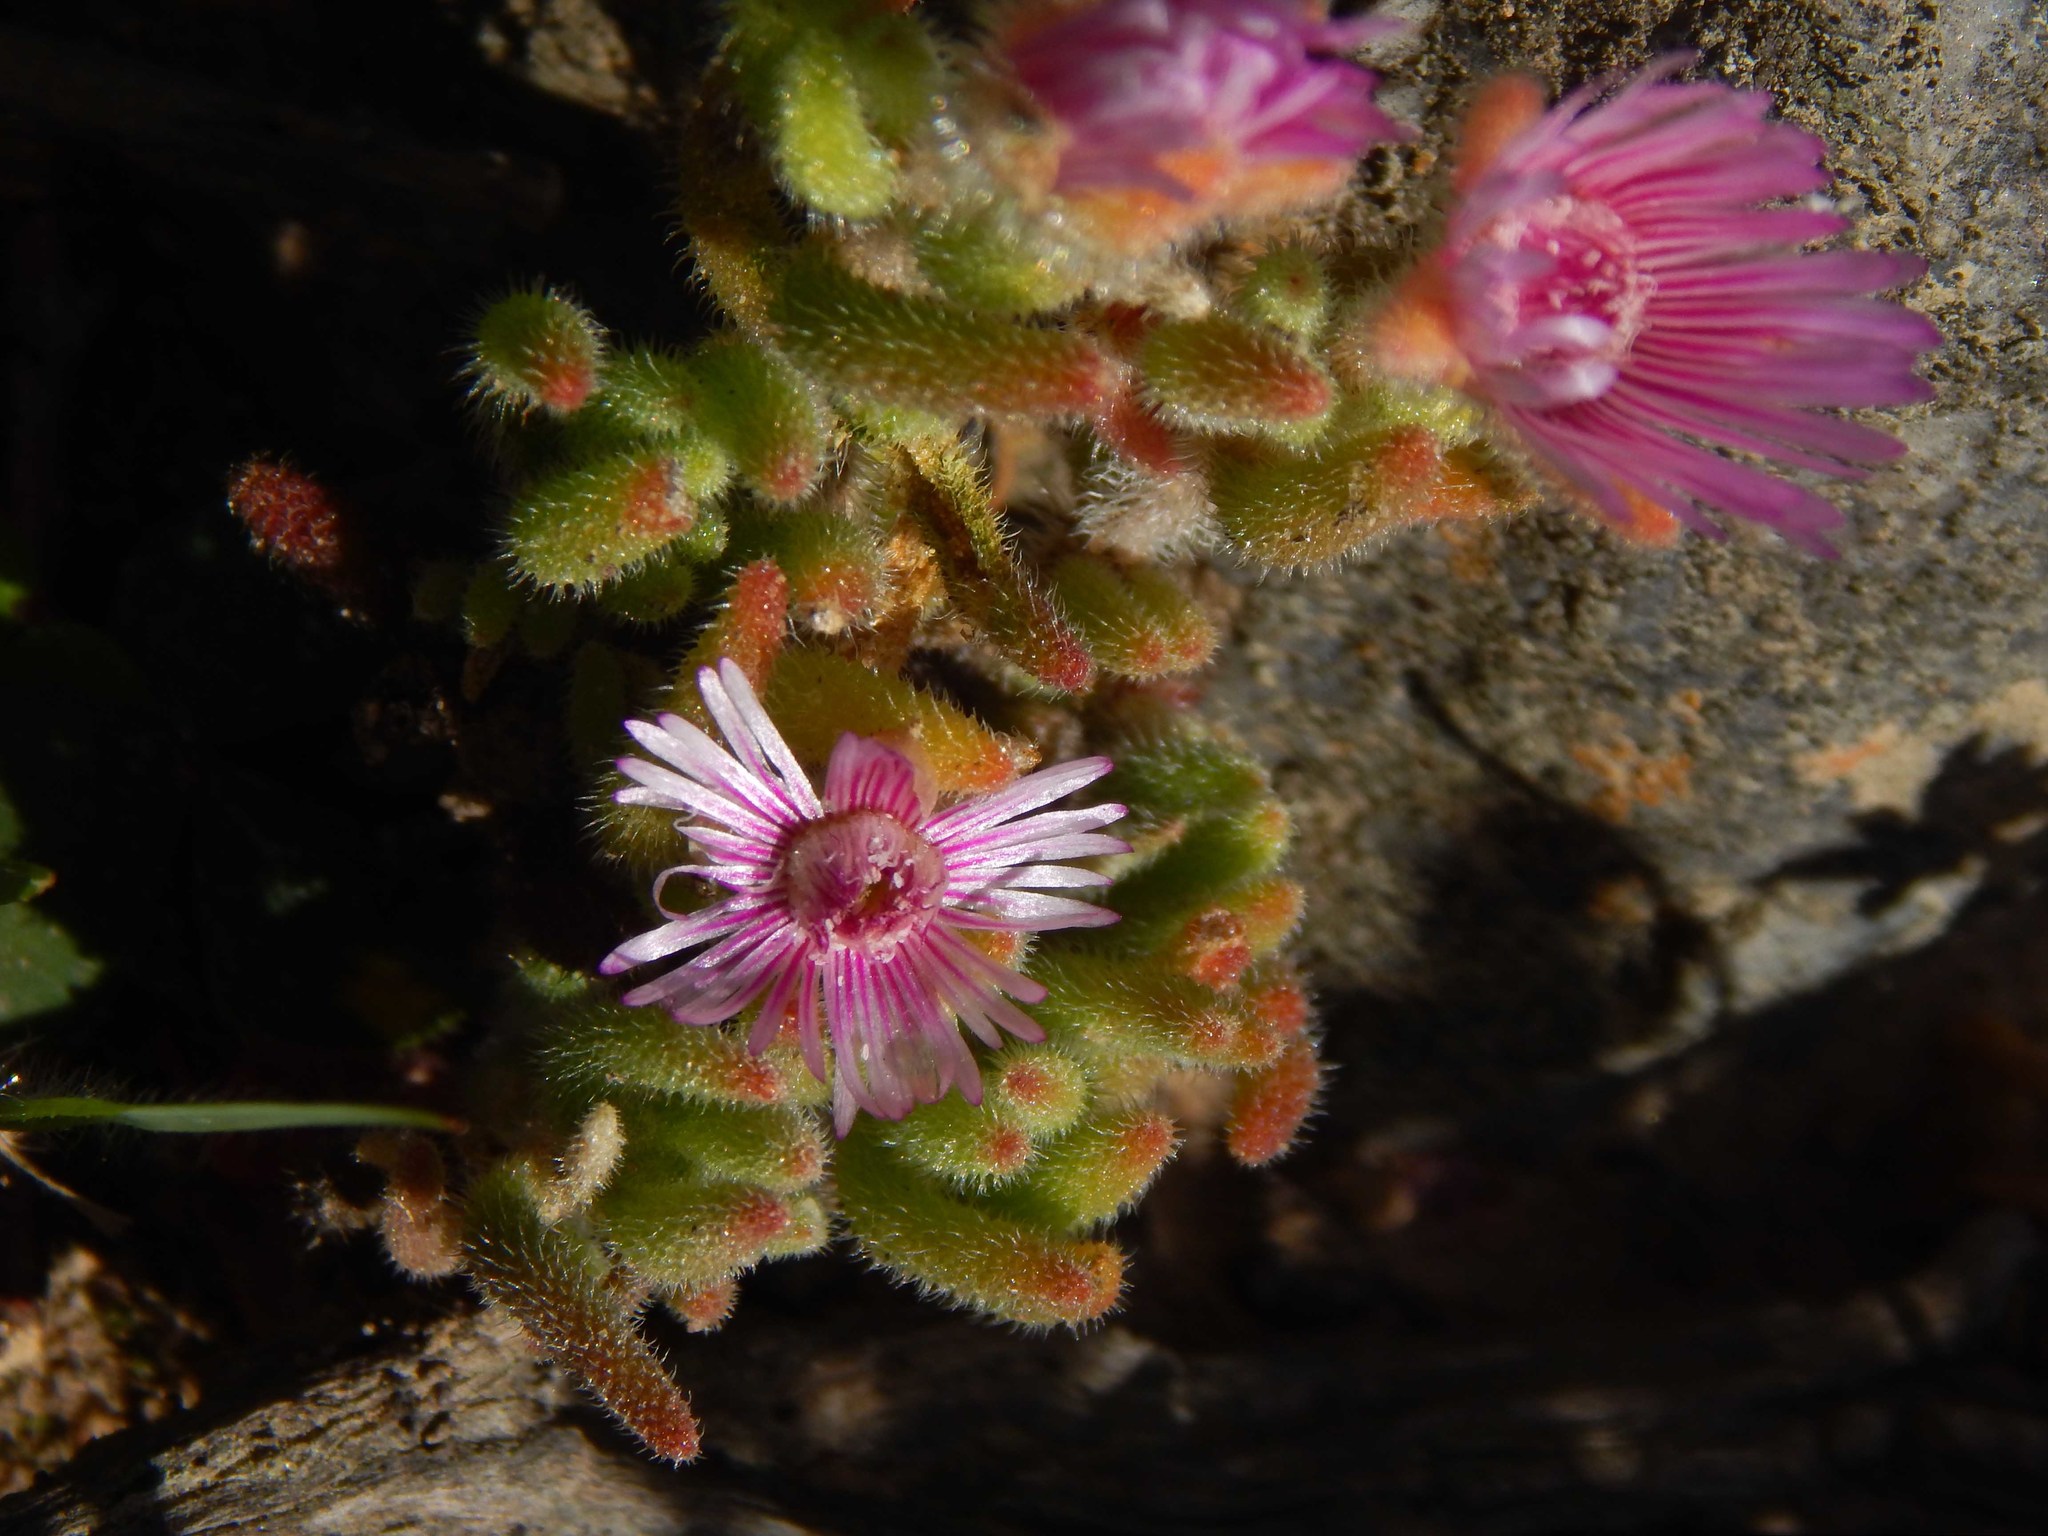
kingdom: Plantae
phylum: Tracheophyta
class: Magnoliopsida
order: Caryophyllales
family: Aizoaceae
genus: Drosanthemum
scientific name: Drosanthemum hispifolium
